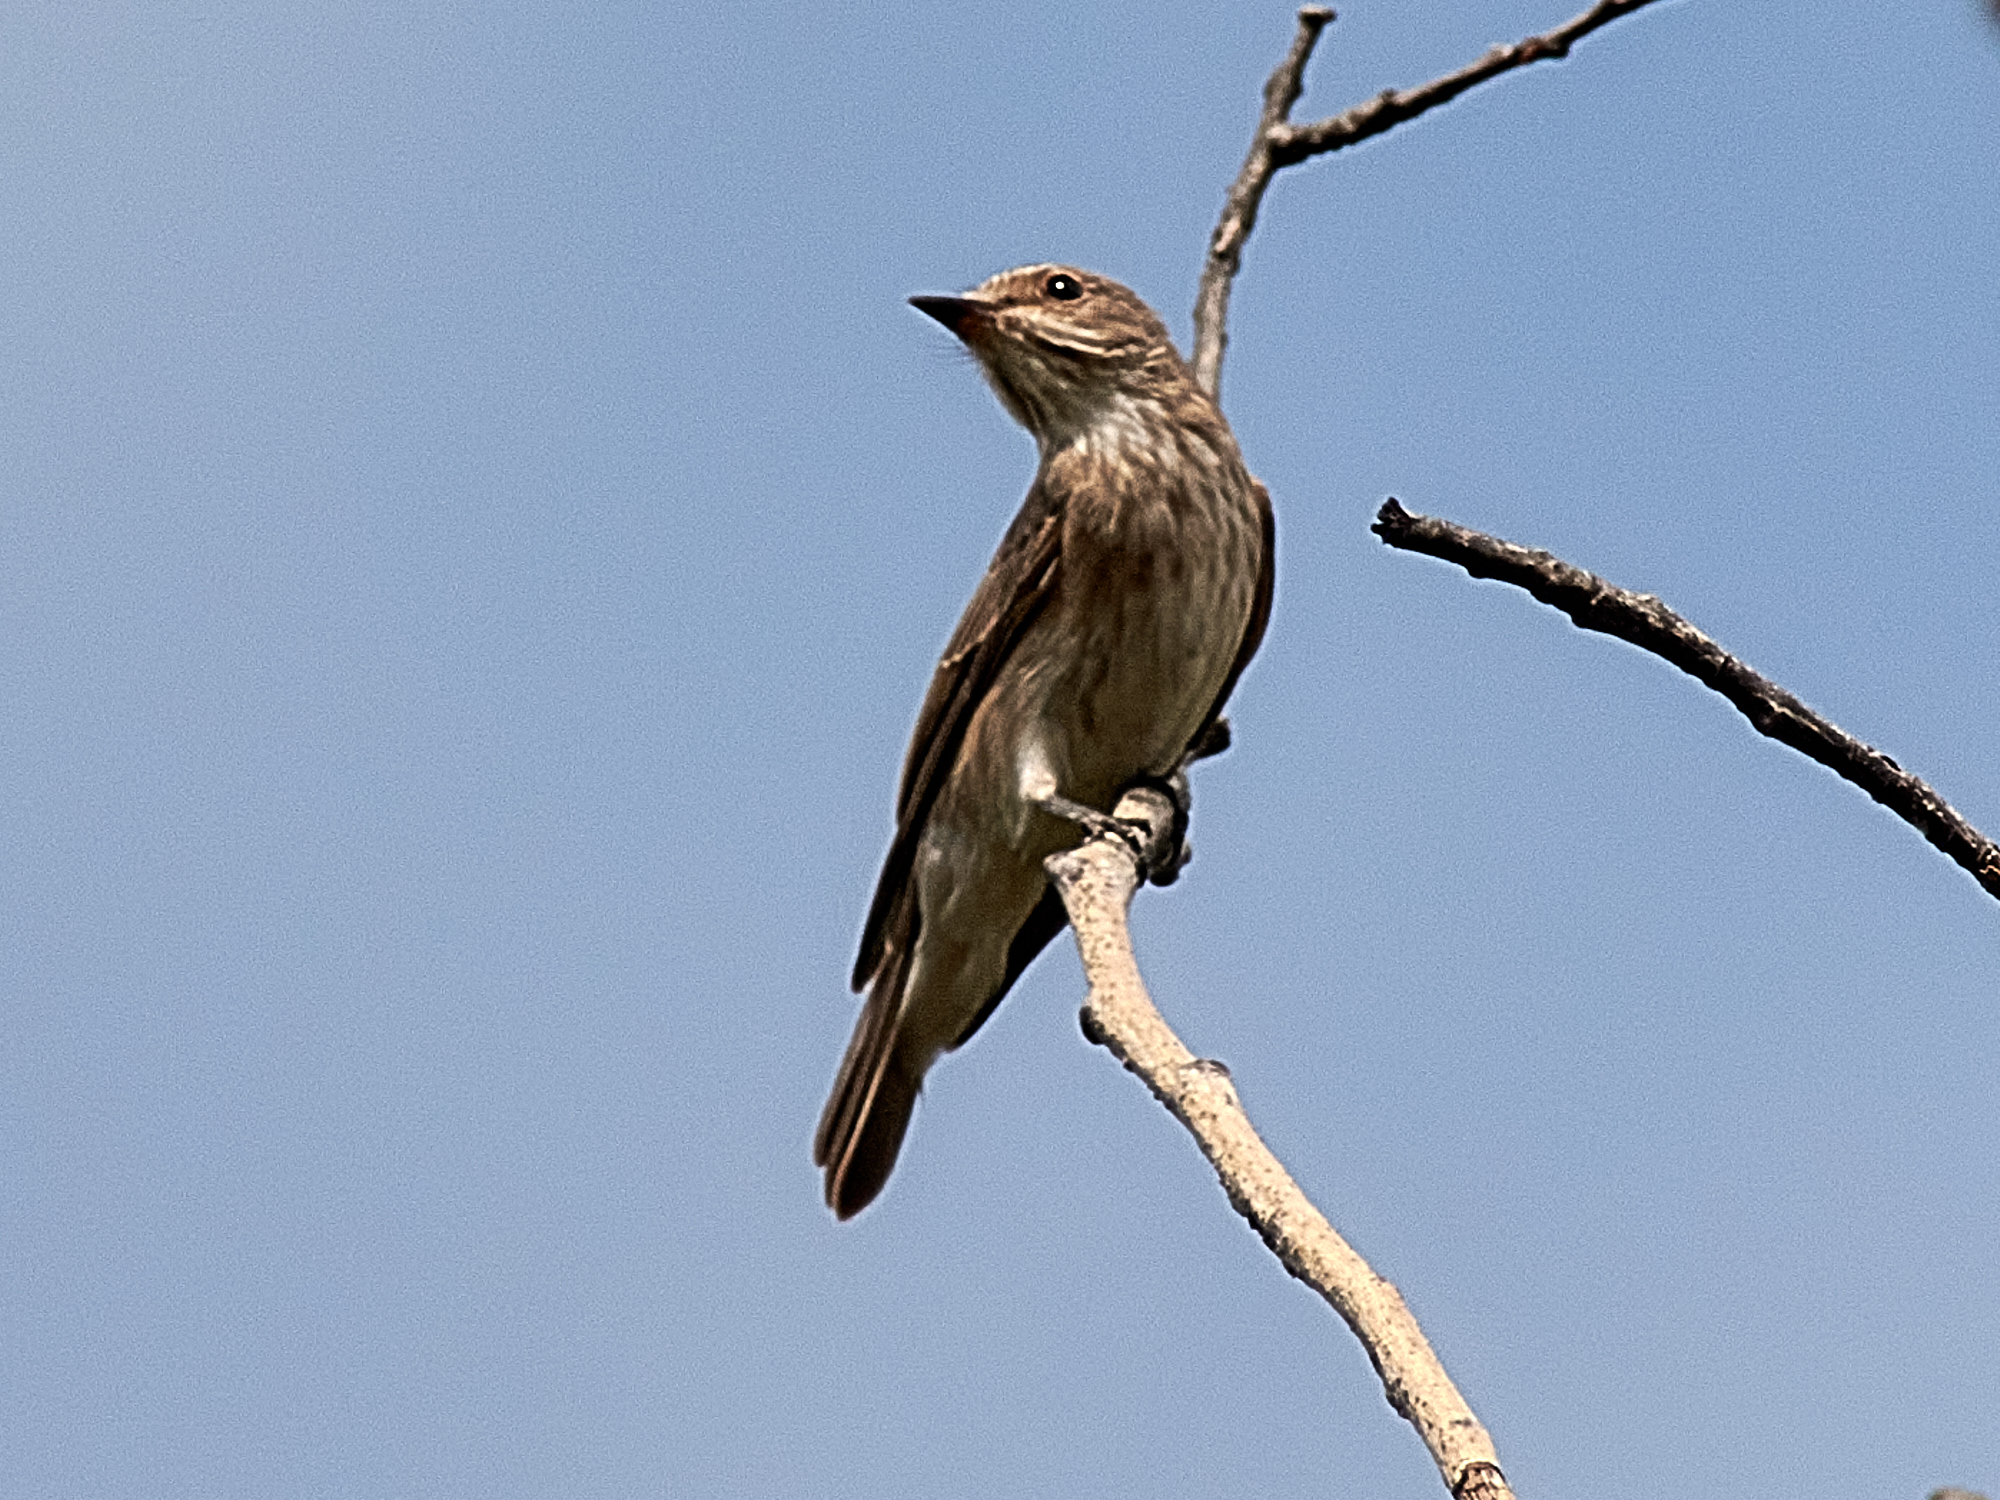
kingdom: Animalia
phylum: Chordata
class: Aves
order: Passeriformes
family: Muscicapidae
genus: Muscicapa
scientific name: Muscicapa striata
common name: Spotted flycatcher
